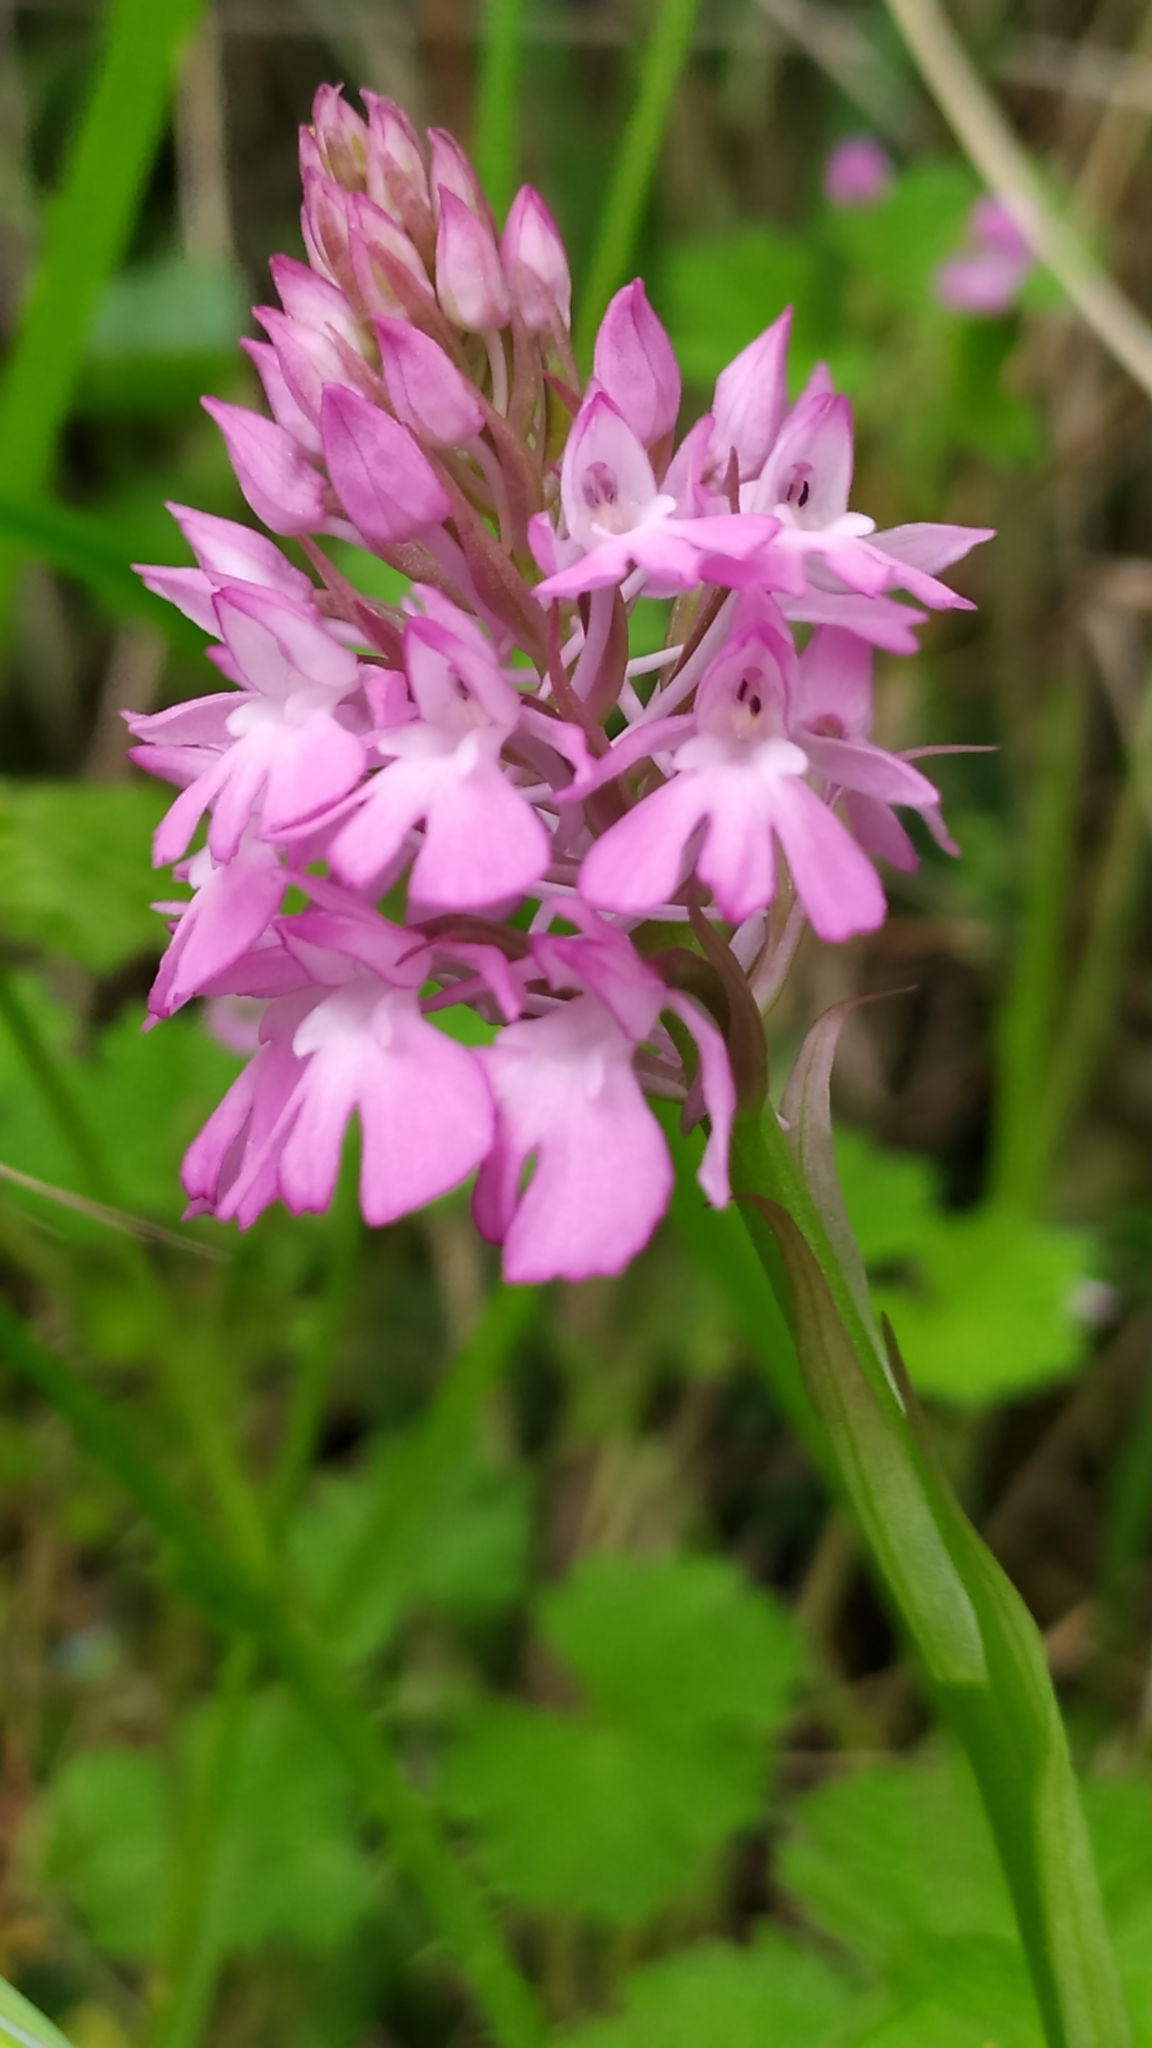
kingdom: Plantae
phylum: Tracheophyta
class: Liliopsida
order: Asparagales
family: Orchidaceae
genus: Anacamptis
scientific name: Anacamptis pyramidalis
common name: Pyramidal orchid
